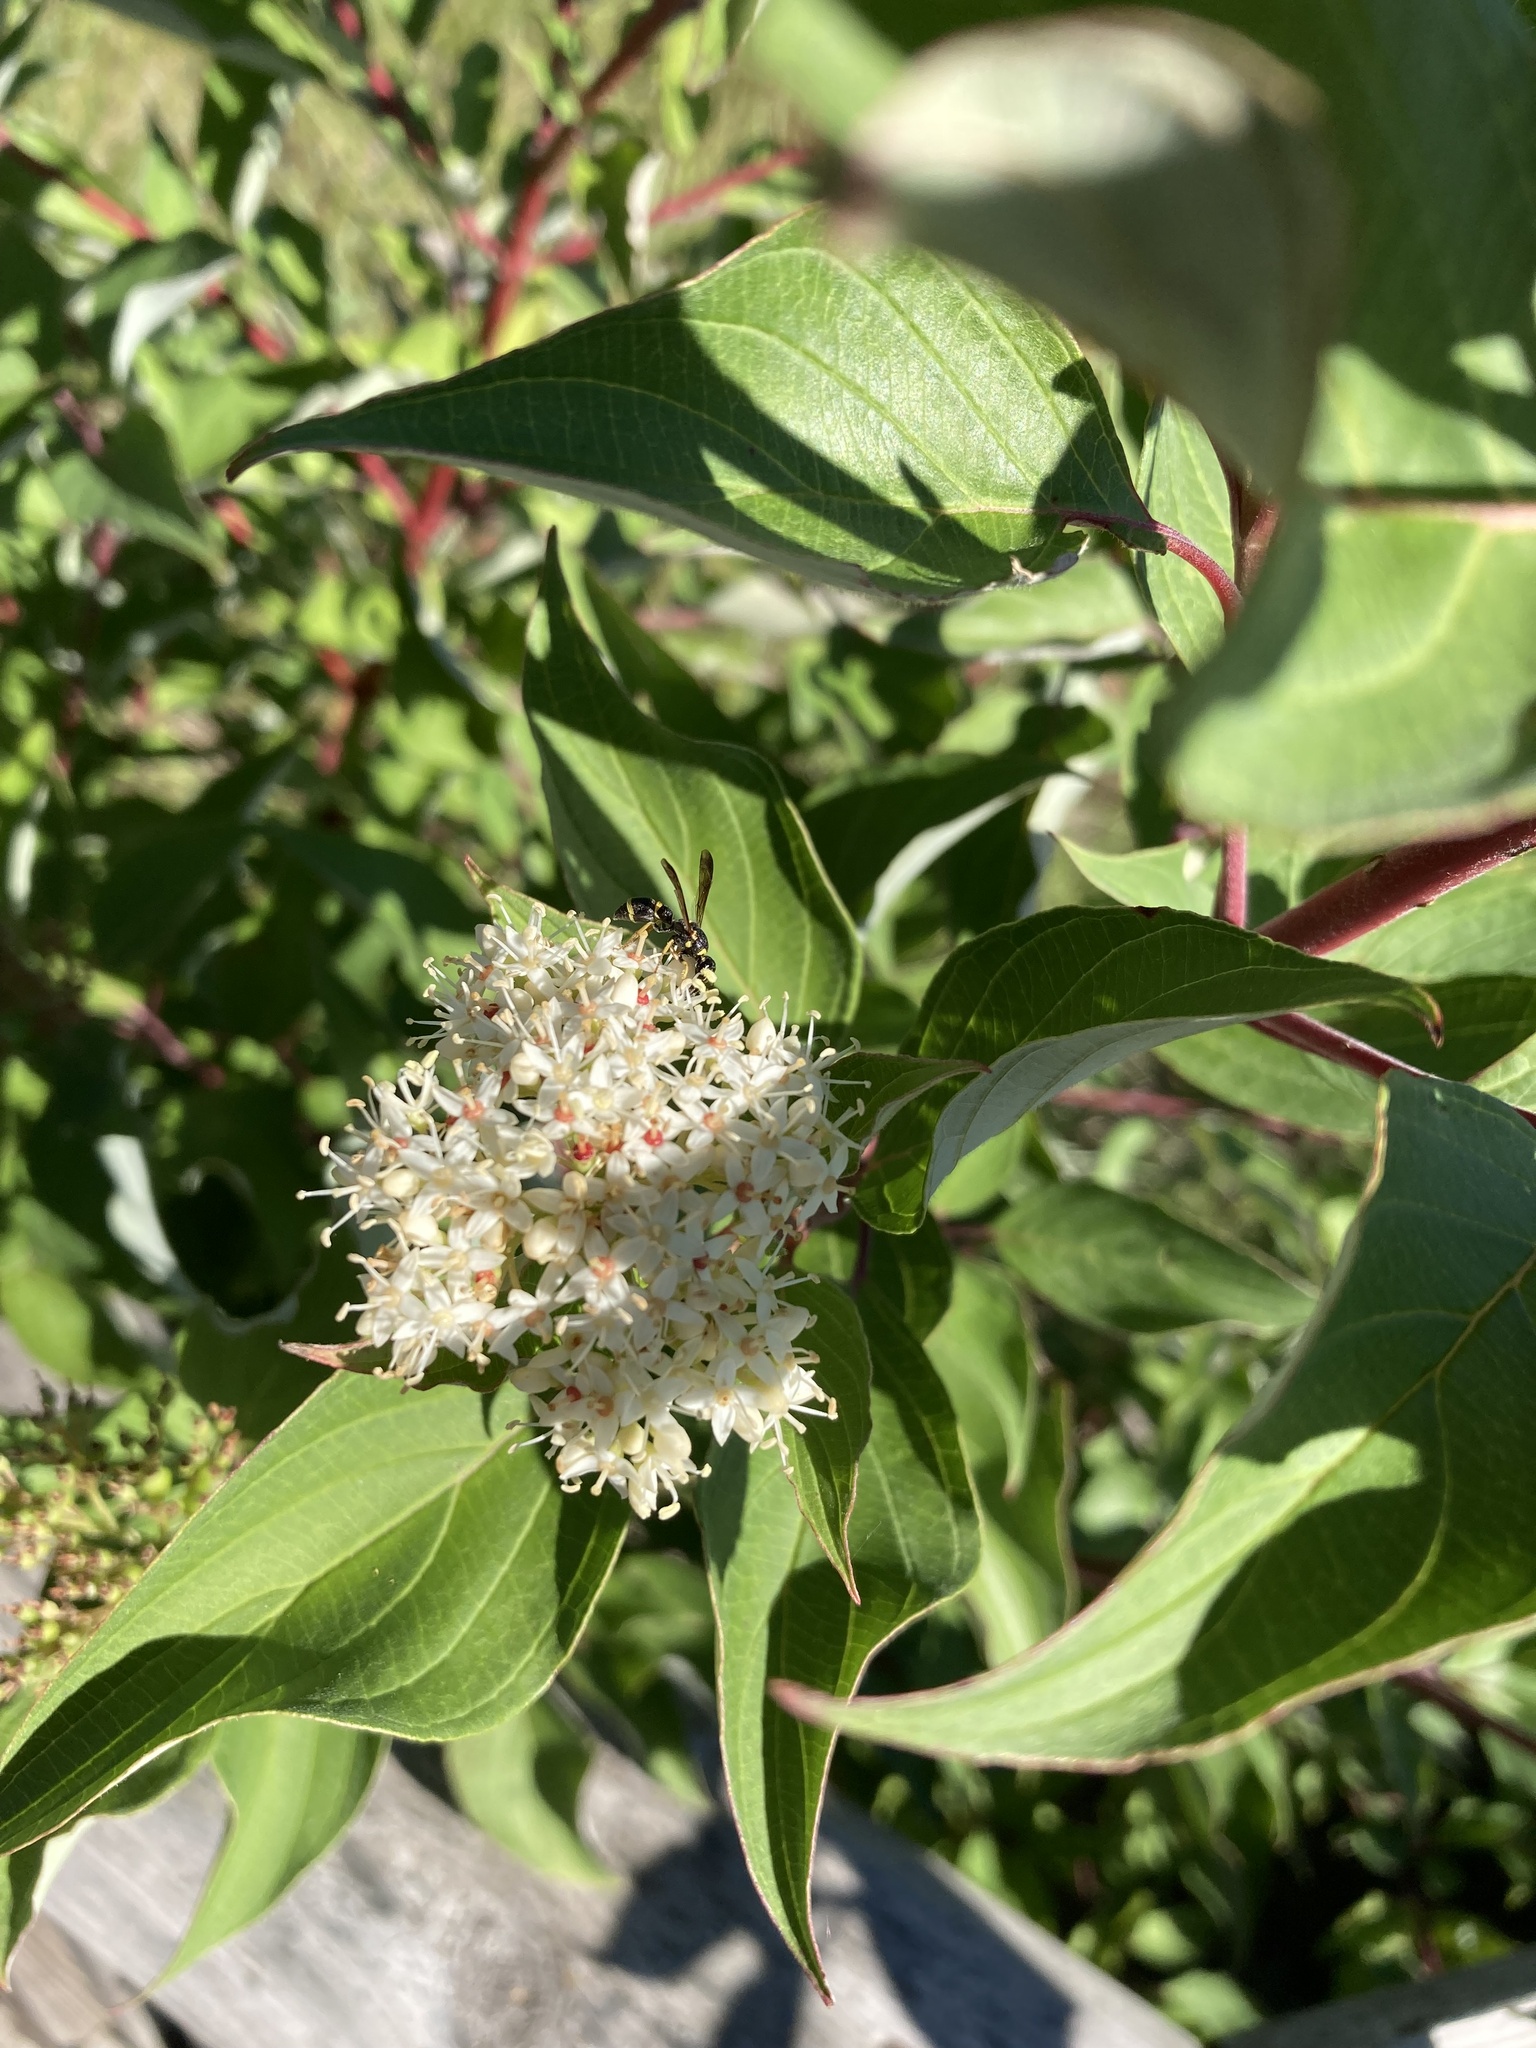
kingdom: Animalia
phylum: Arthropoda
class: Insecta
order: Hymenoptera
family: Eumenidae
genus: Parancistrocerus
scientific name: Parancistrocerus perennis
